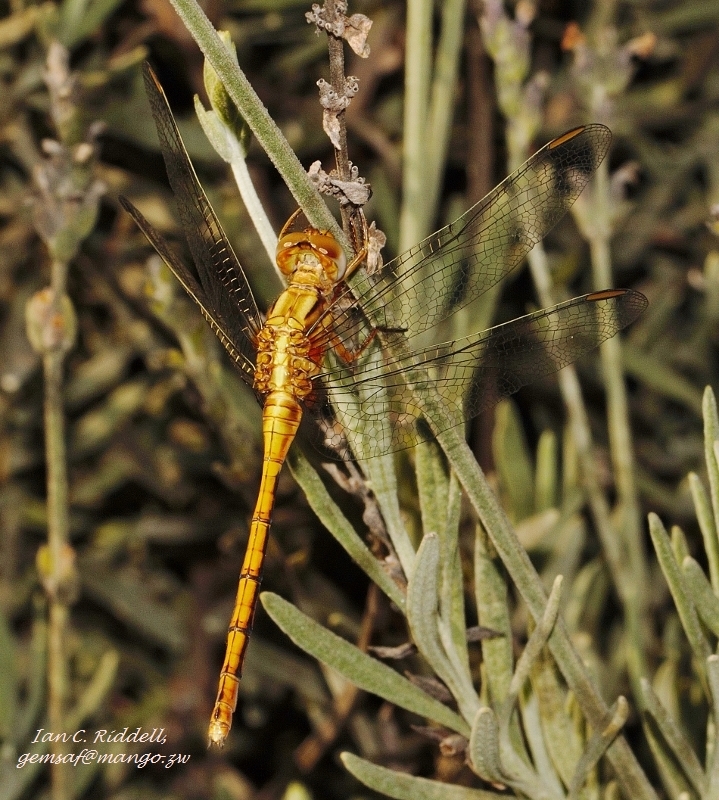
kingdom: Animalia
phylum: Arthropoda
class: Insecta
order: Odonata
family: Libellulidae
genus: Orthetrum
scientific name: Orthetrum machadoi
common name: Highland skimmer
